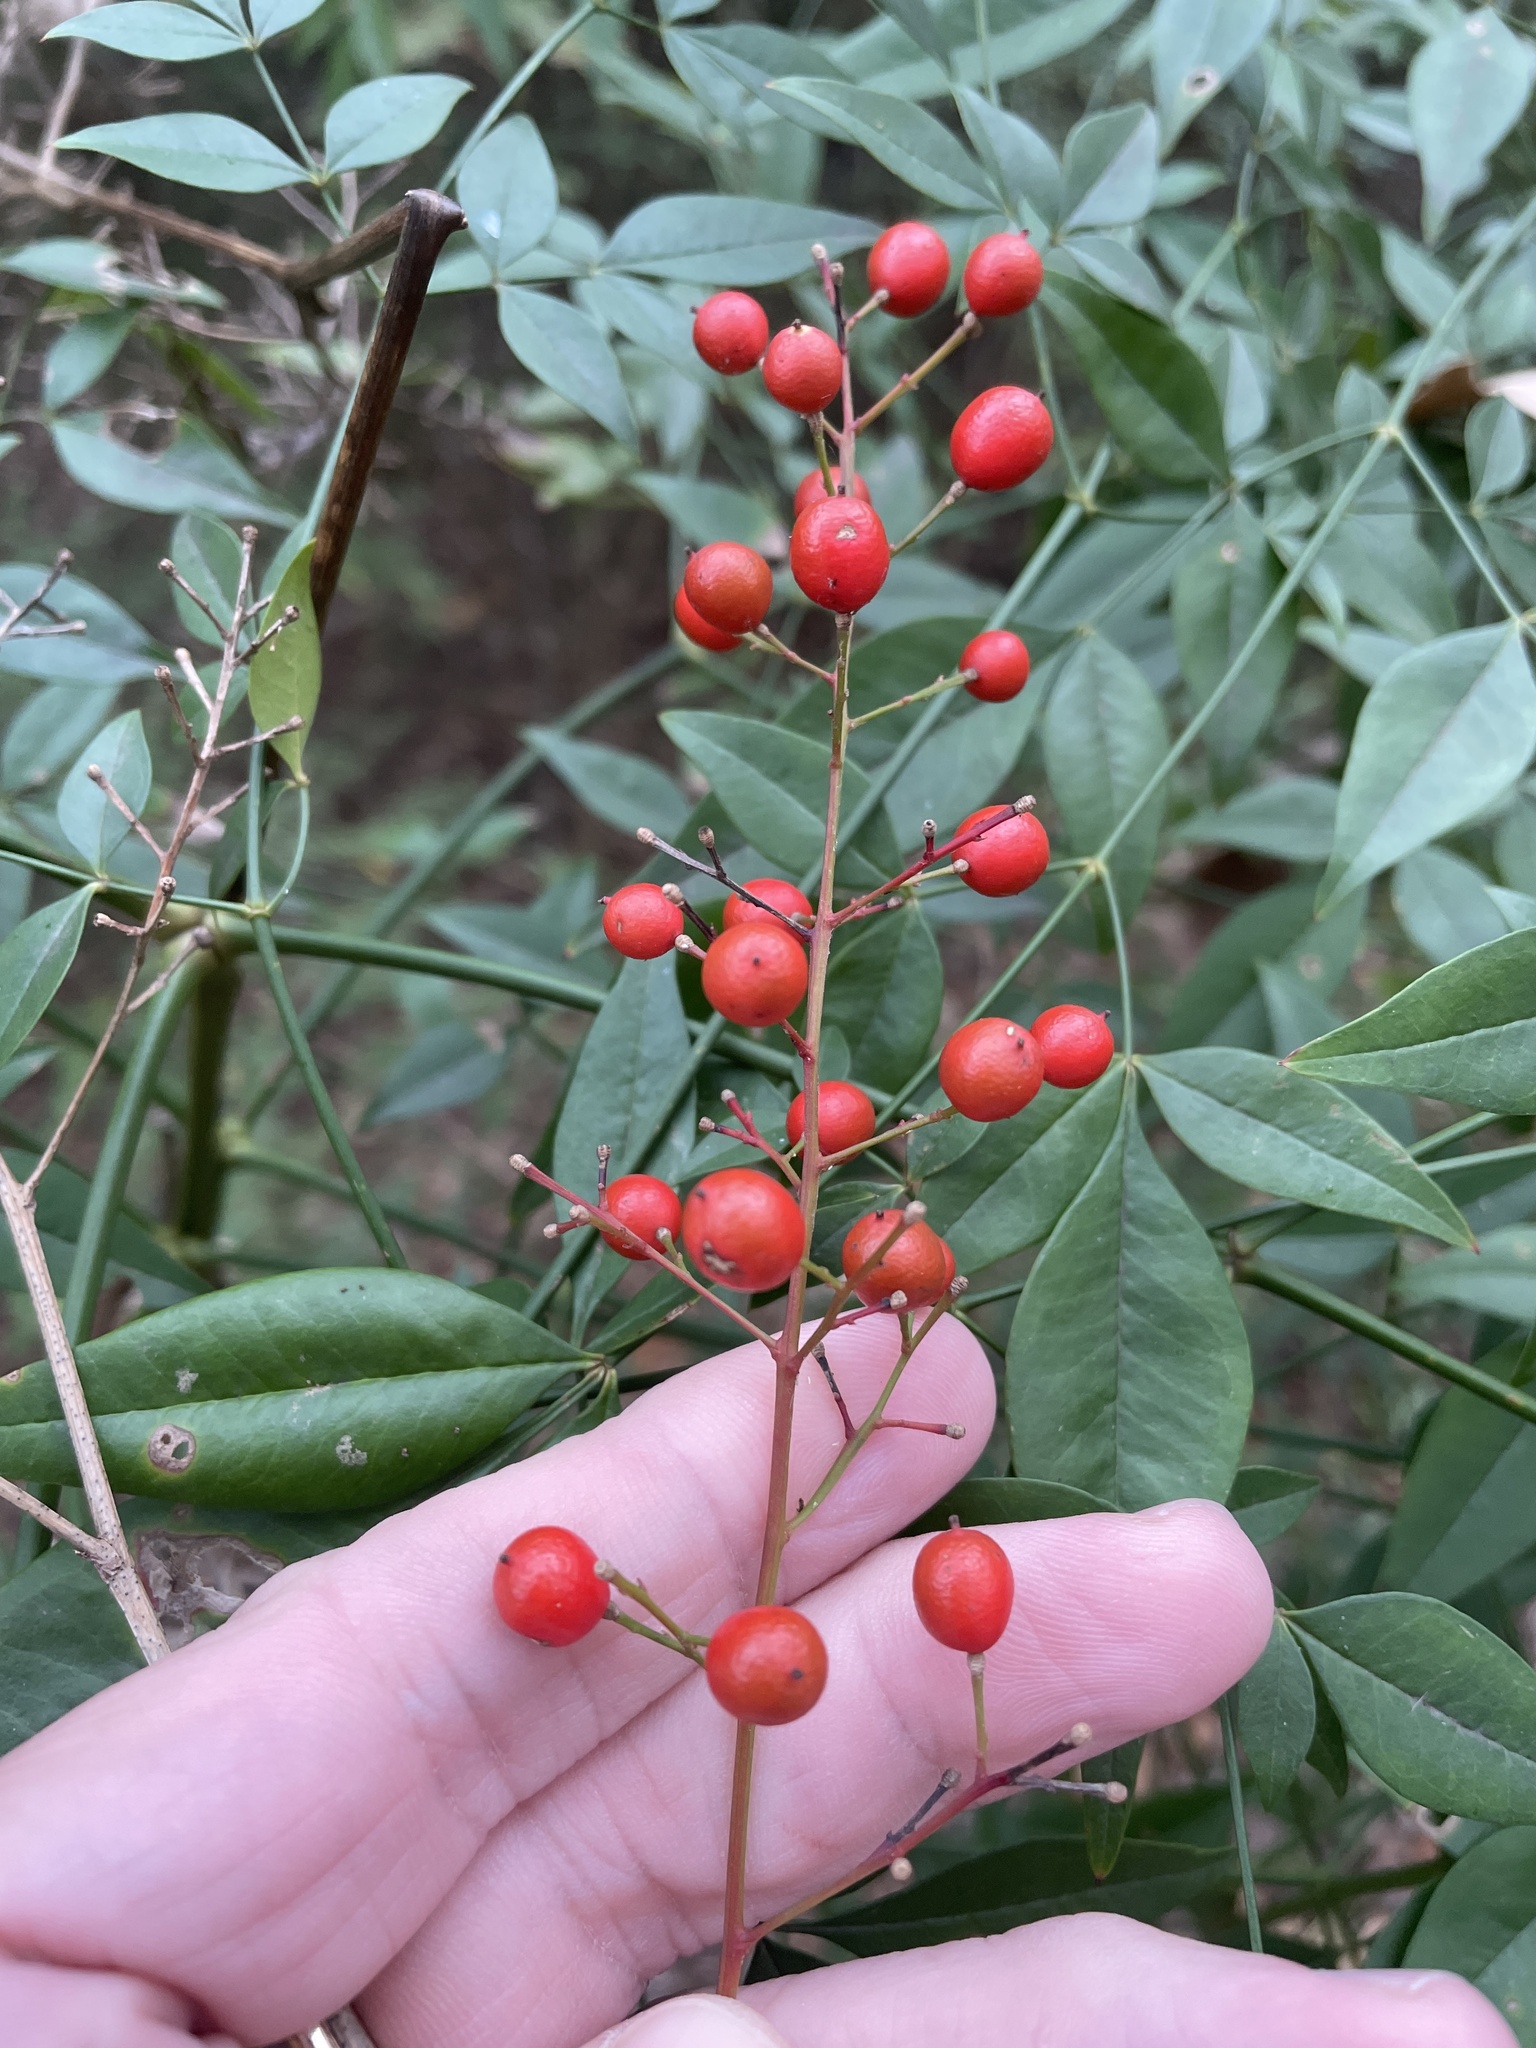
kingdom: Plantae
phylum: Tracheophyta
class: Magnoliopsida
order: Ranunculales
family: Berberidaceae
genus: Nandina
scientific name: Nandina domestica
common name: Sacred bamboo
